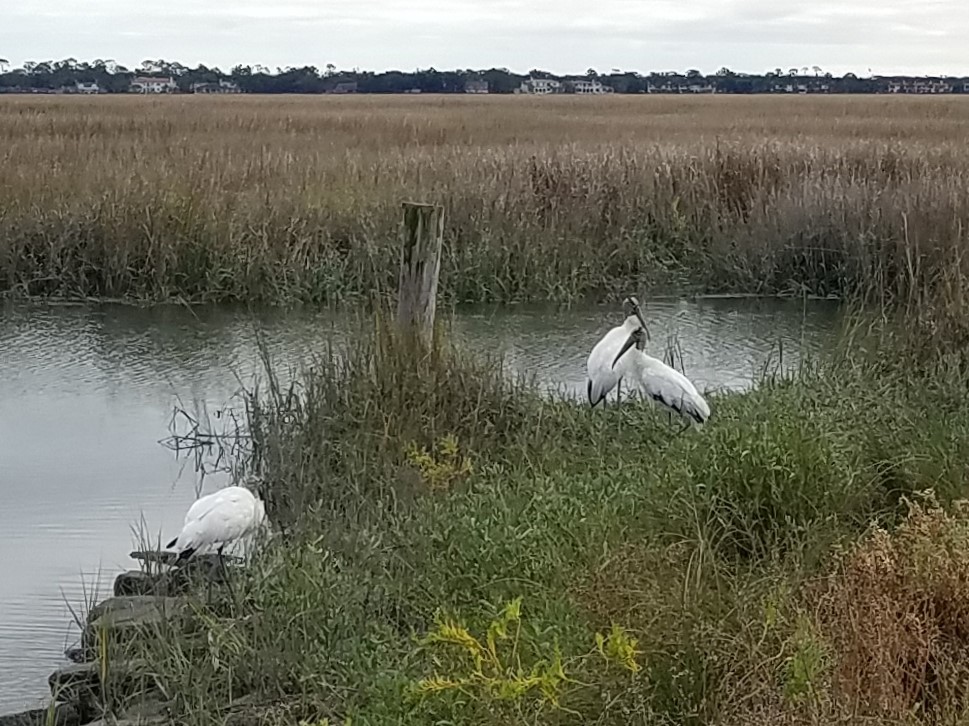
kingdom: Animalia
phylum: Chordata
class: Aves
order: Ciconiiformes
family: Ciconiidae
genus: Mycteria
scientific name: Mycteria americana
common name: Wood stork
